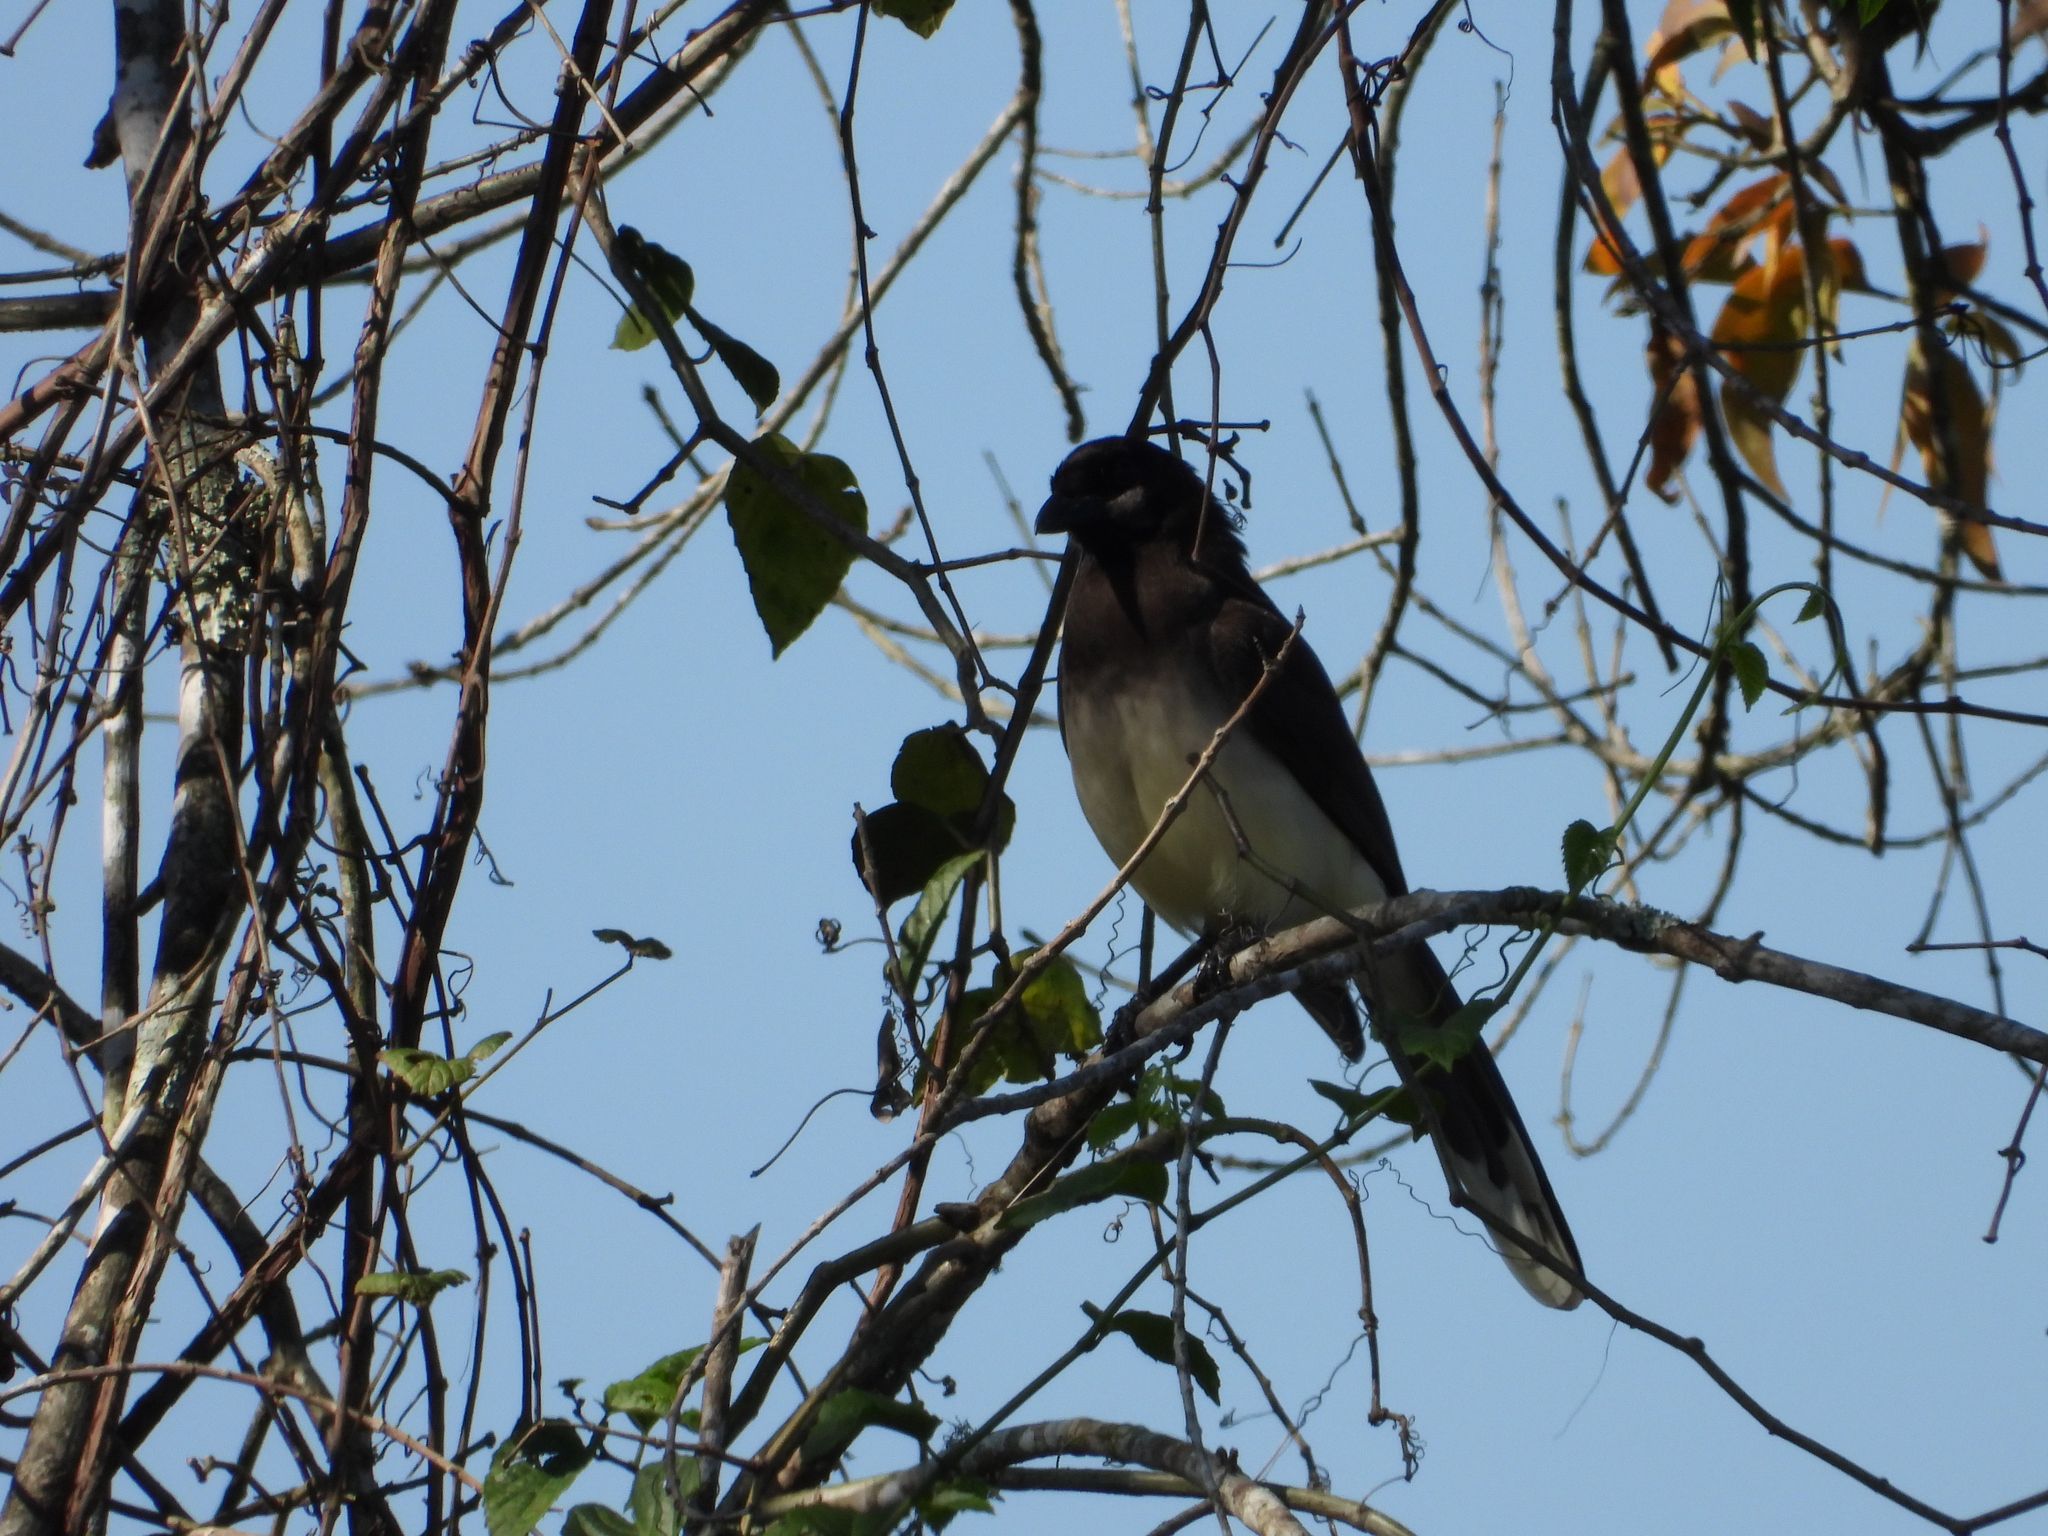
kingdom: Animalia
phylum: Chordata
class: Aves
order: Passeriformes
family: Corvidae
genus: Psilorhinus
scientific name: Psilorhinus morio
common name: Brown jay
